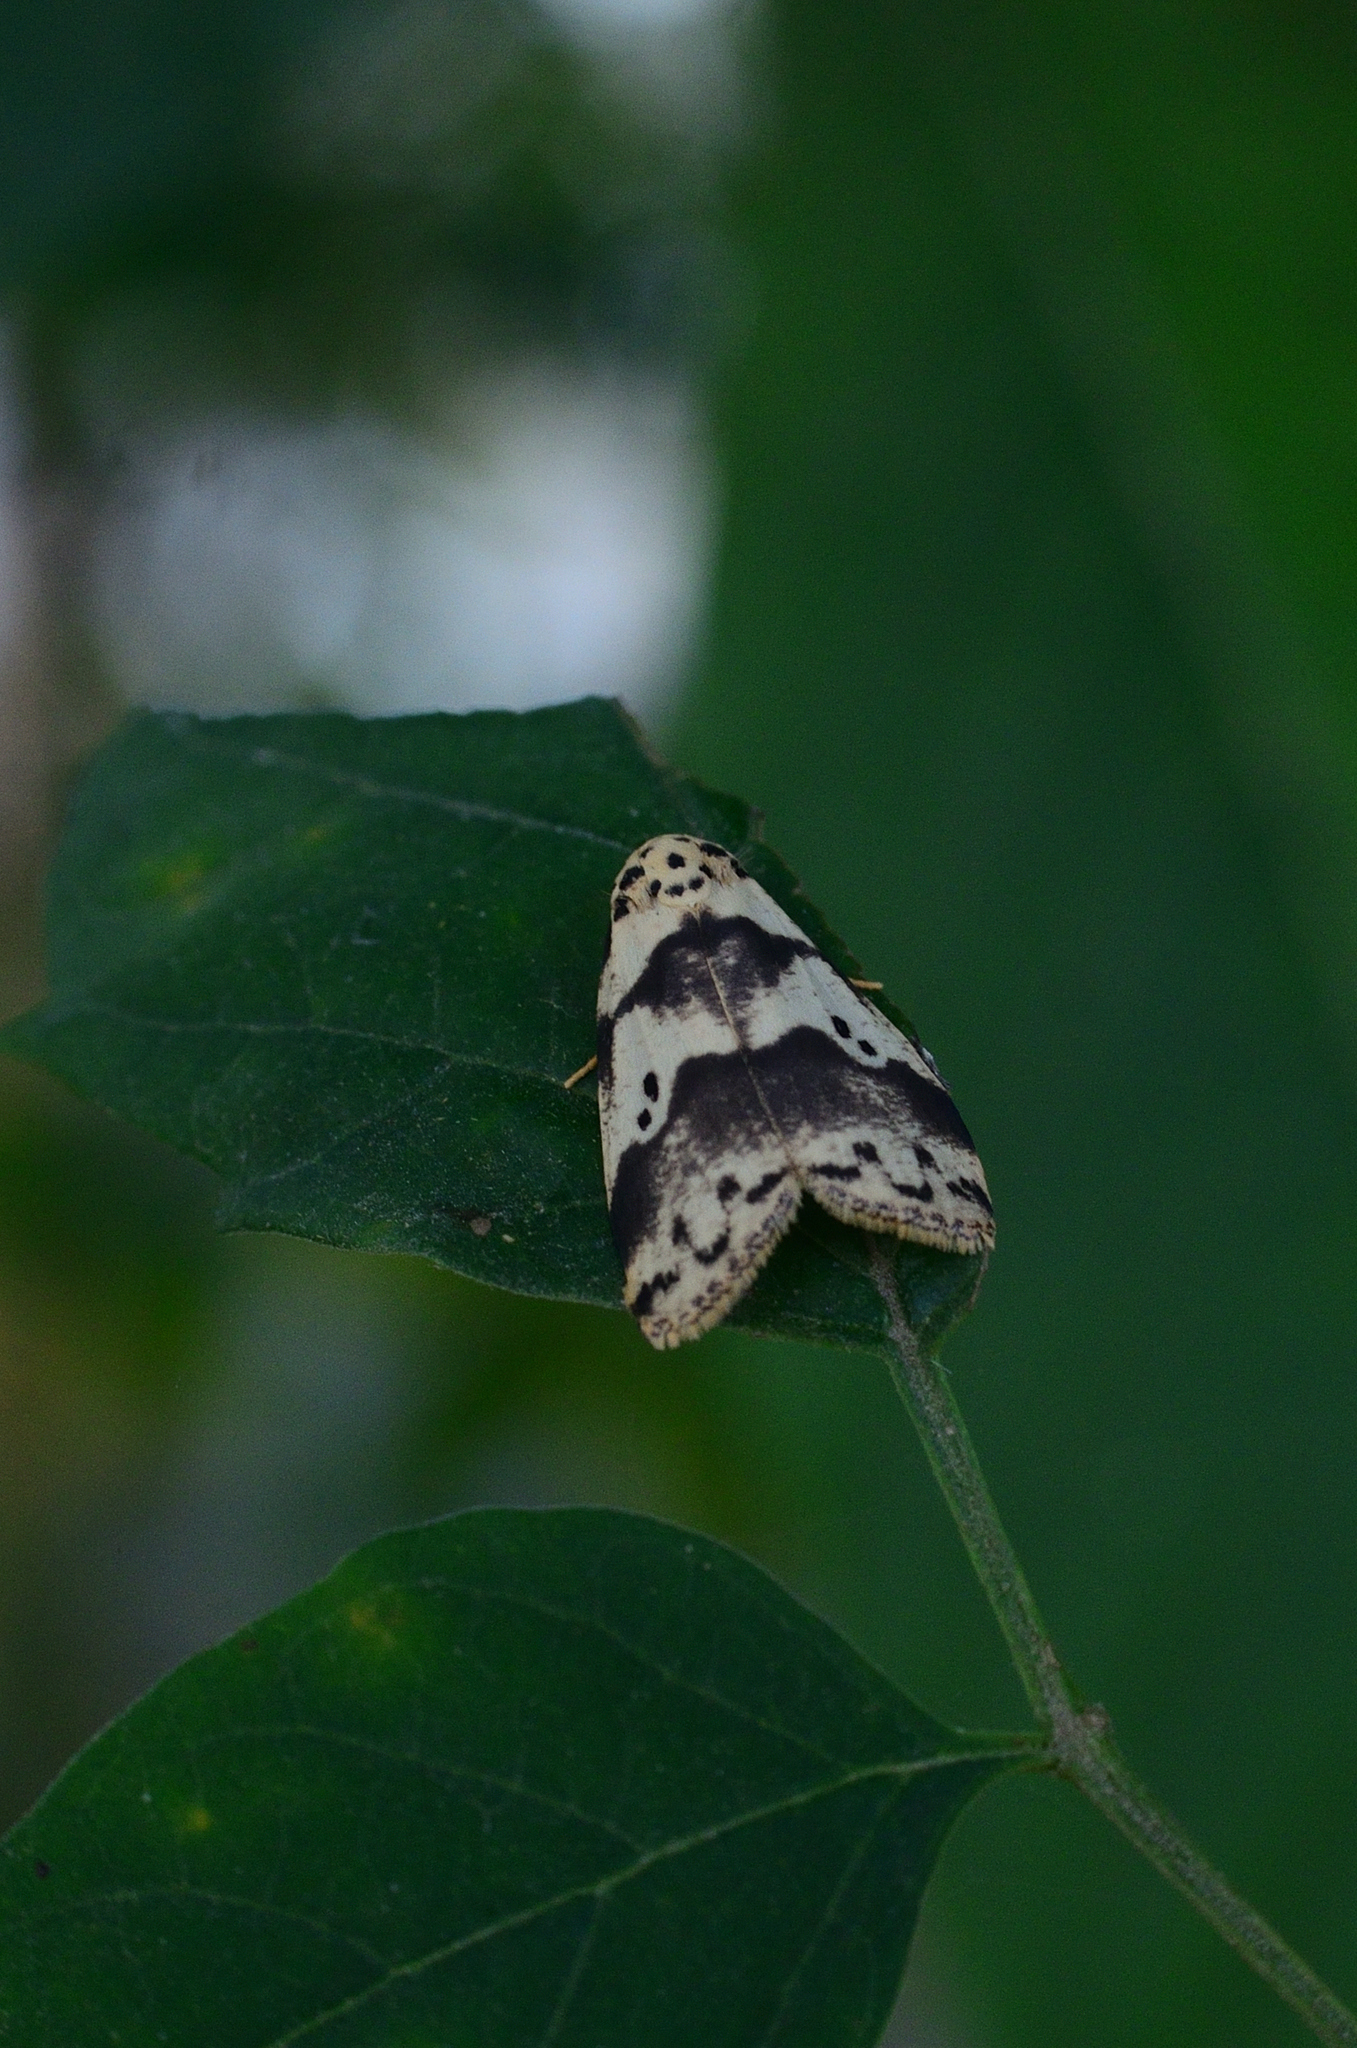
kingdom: Animalia
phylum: Arthropoda
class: Insecta
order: Lepidoptera
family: Erebidae
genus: Eugoa
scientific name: Eugoa bipuncta
